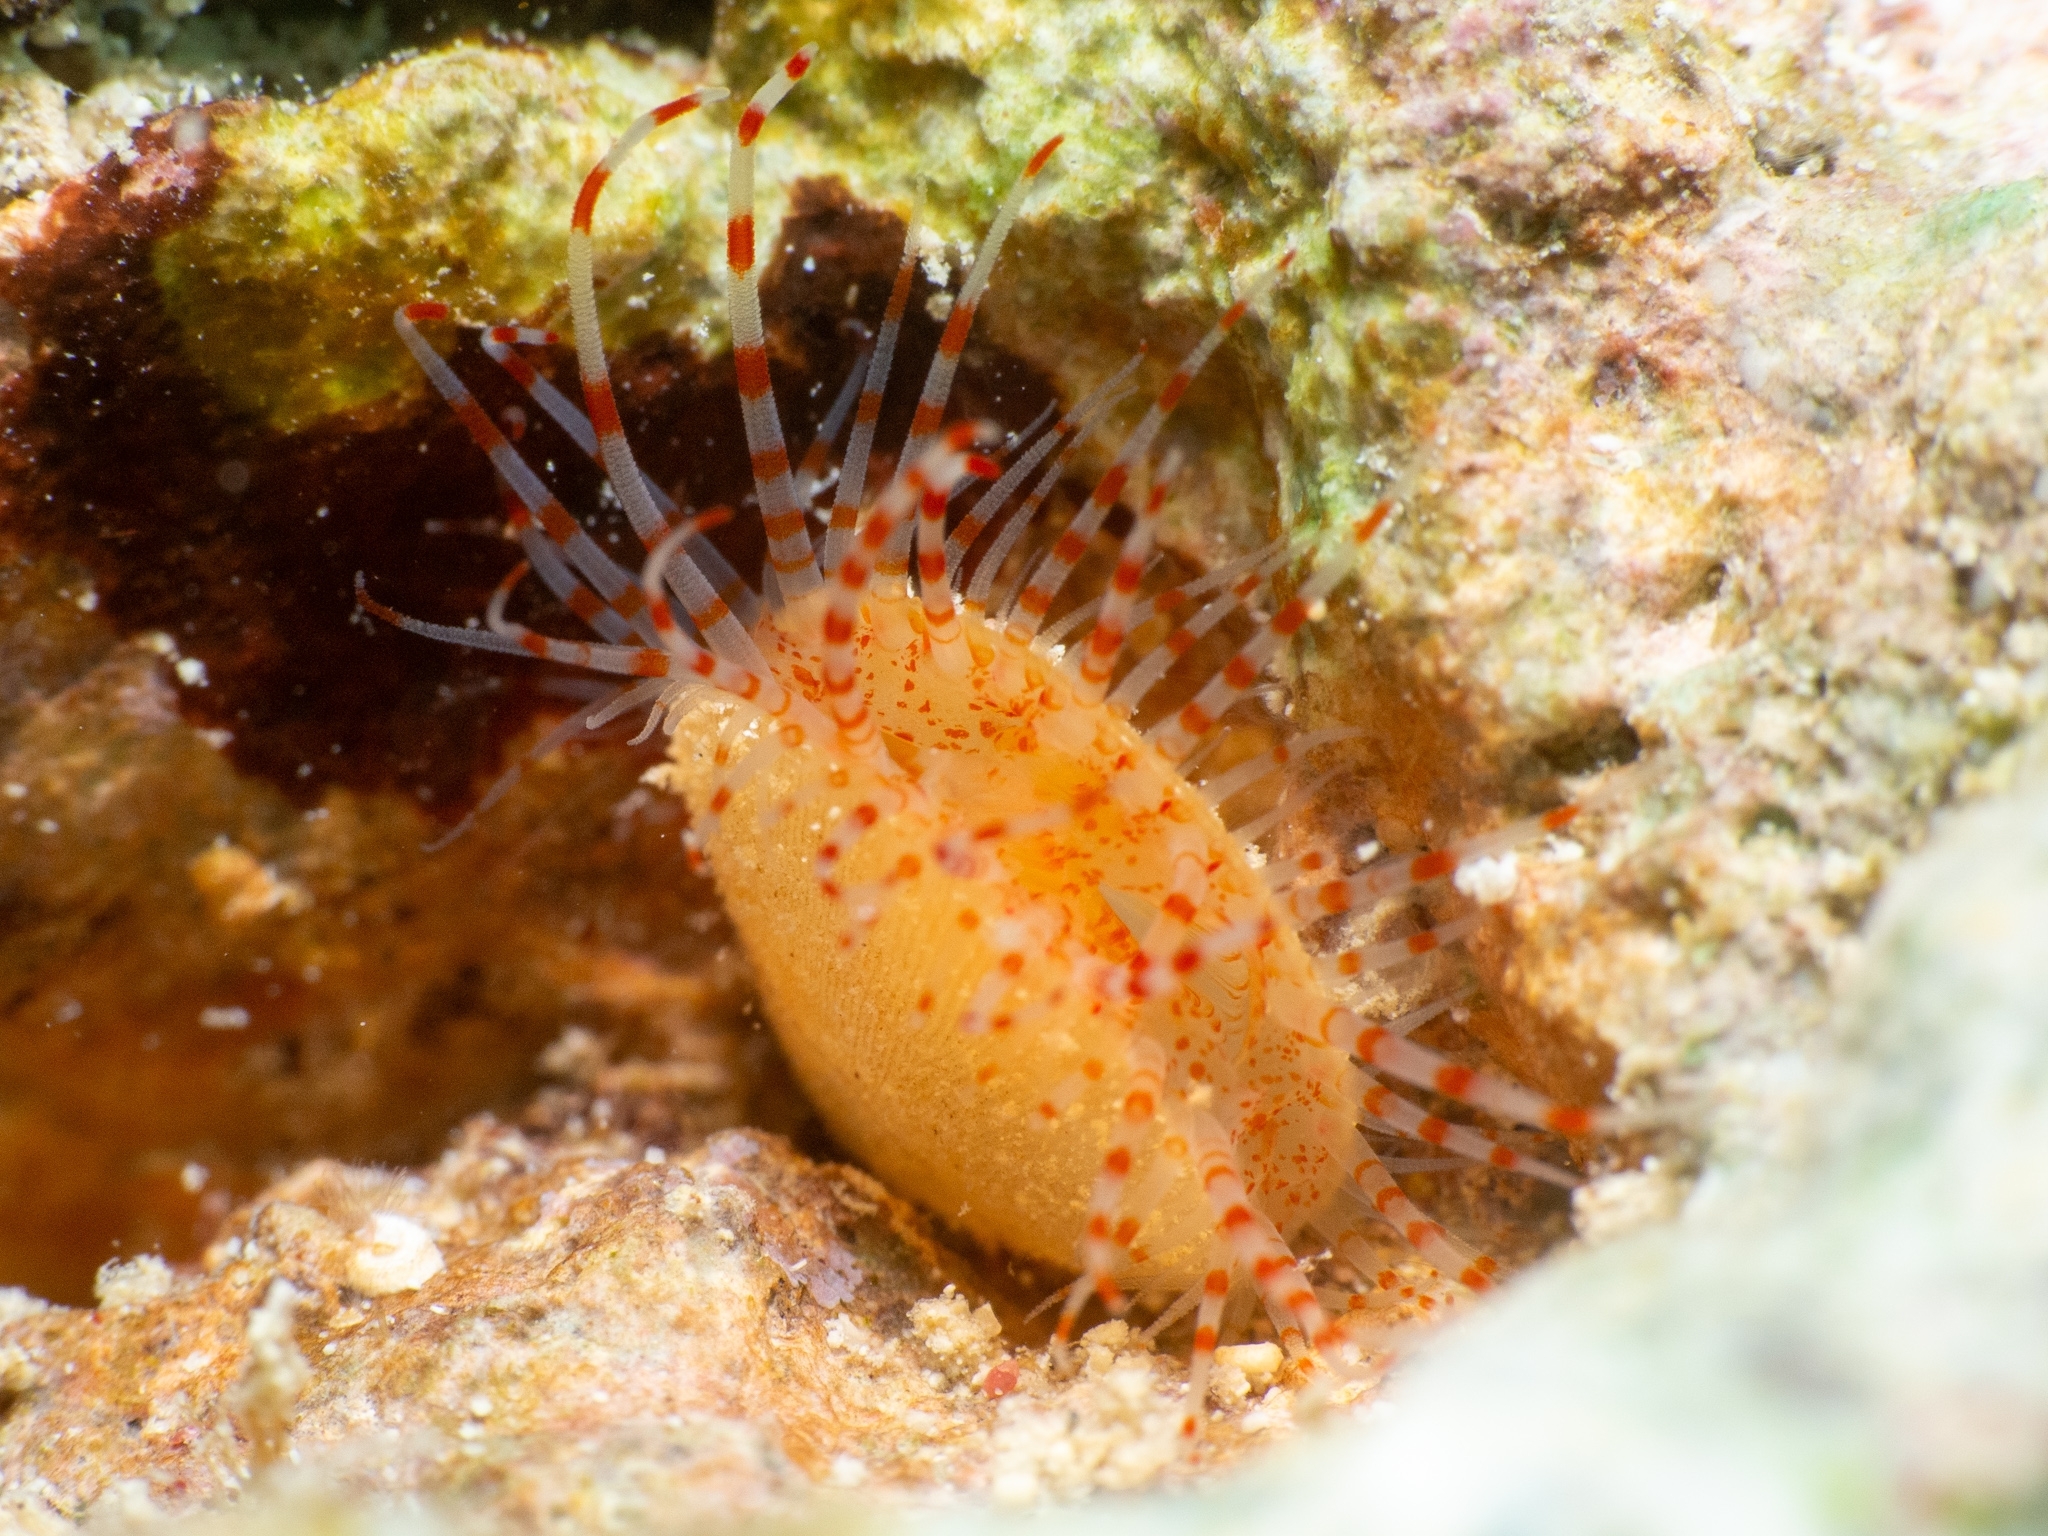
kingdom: Animalia
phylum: Mollusca
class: Bivalvia
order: Limida
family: Limidae
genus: Ctenoides
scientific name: Ctenoides mitis
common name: Smooth flame scallop
